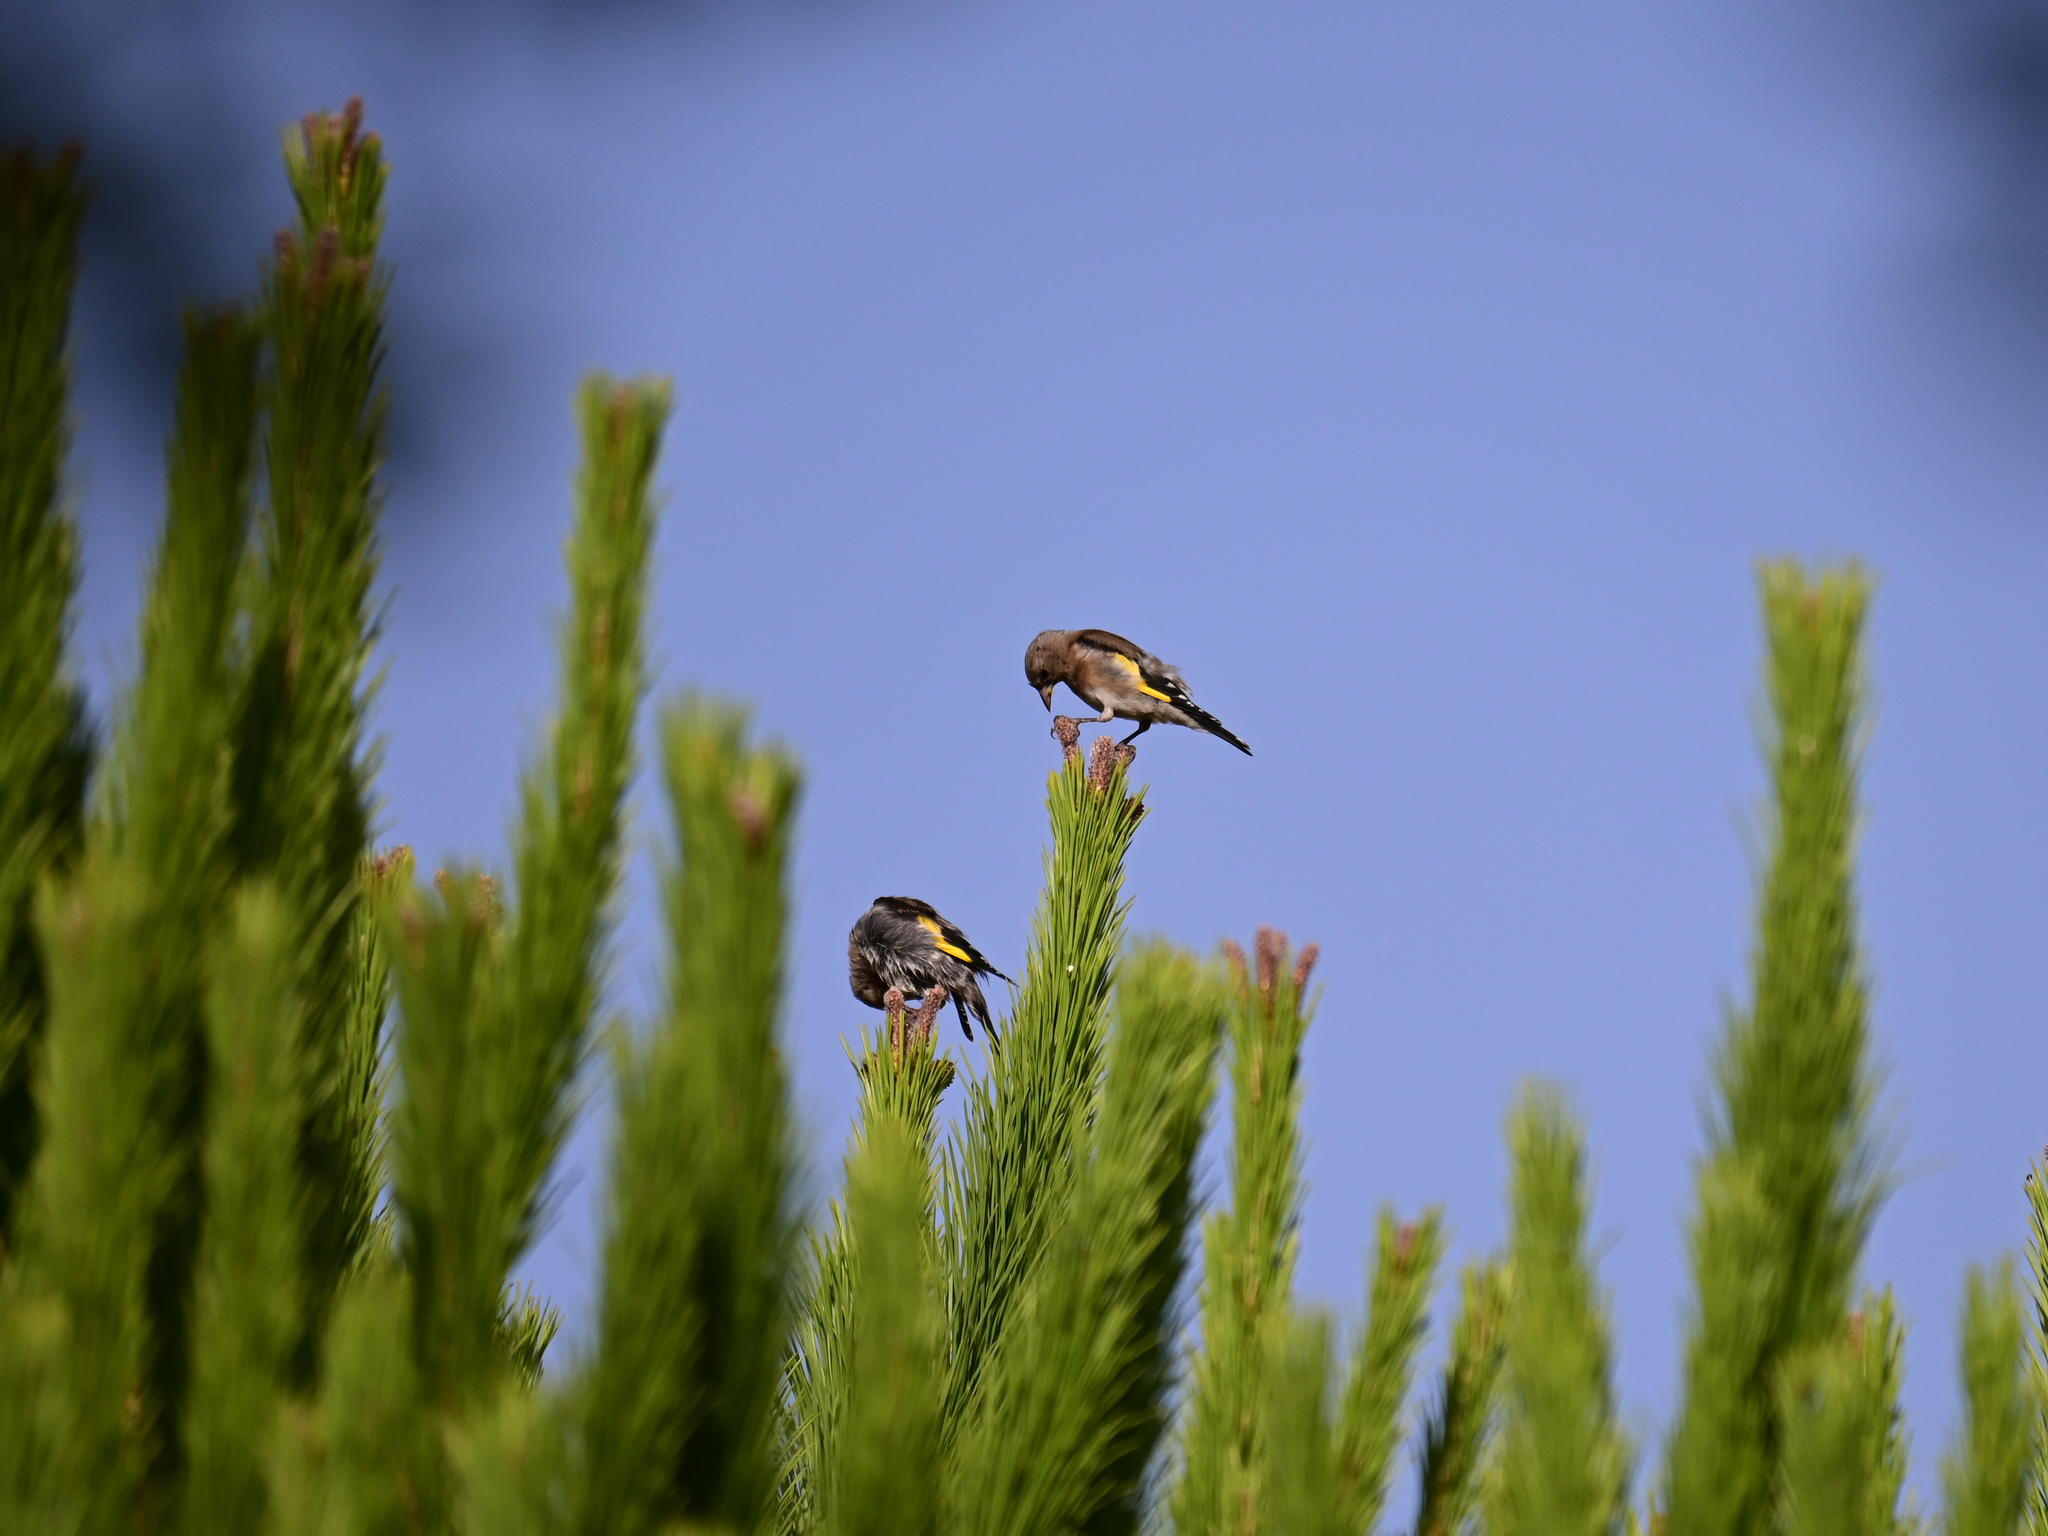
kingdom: Animalia
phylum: Chordata
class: Aves
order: Passeriformes
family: Fringillidae
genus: Carduelis
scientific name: Carduelis carduelis
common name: European goldfinch
